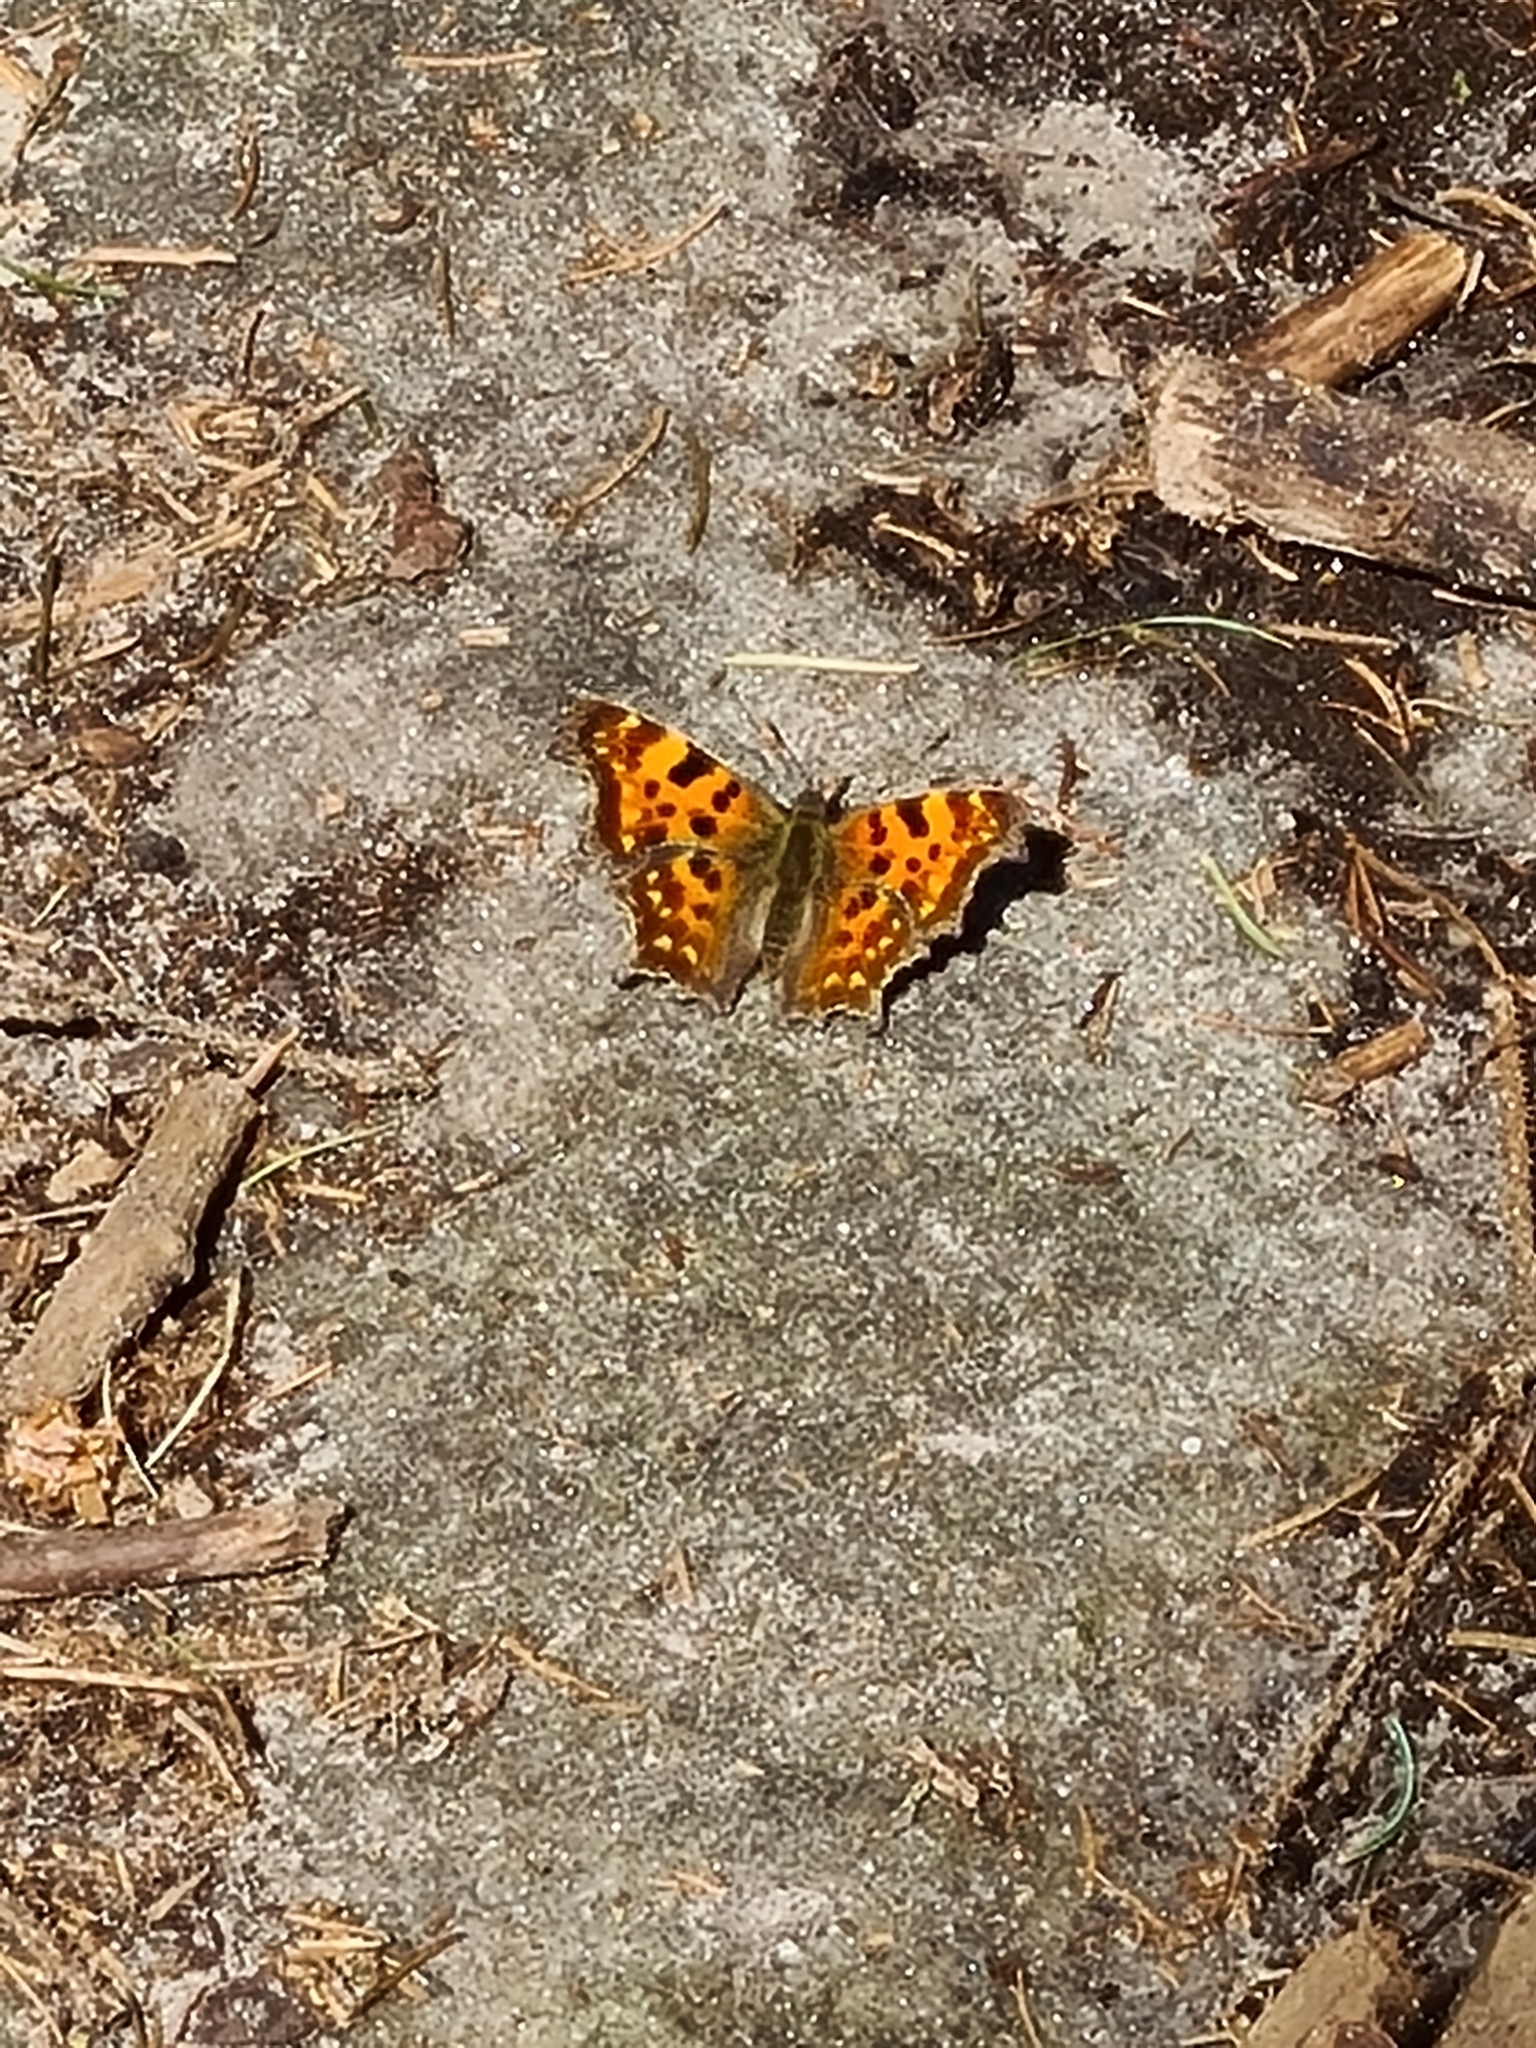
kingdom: Animalia
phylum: Arthropoda
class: Insecta
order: Lepidoptera
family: Nymphalidae
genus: Polygonia
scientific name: Polygonia c-album
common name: Comma
